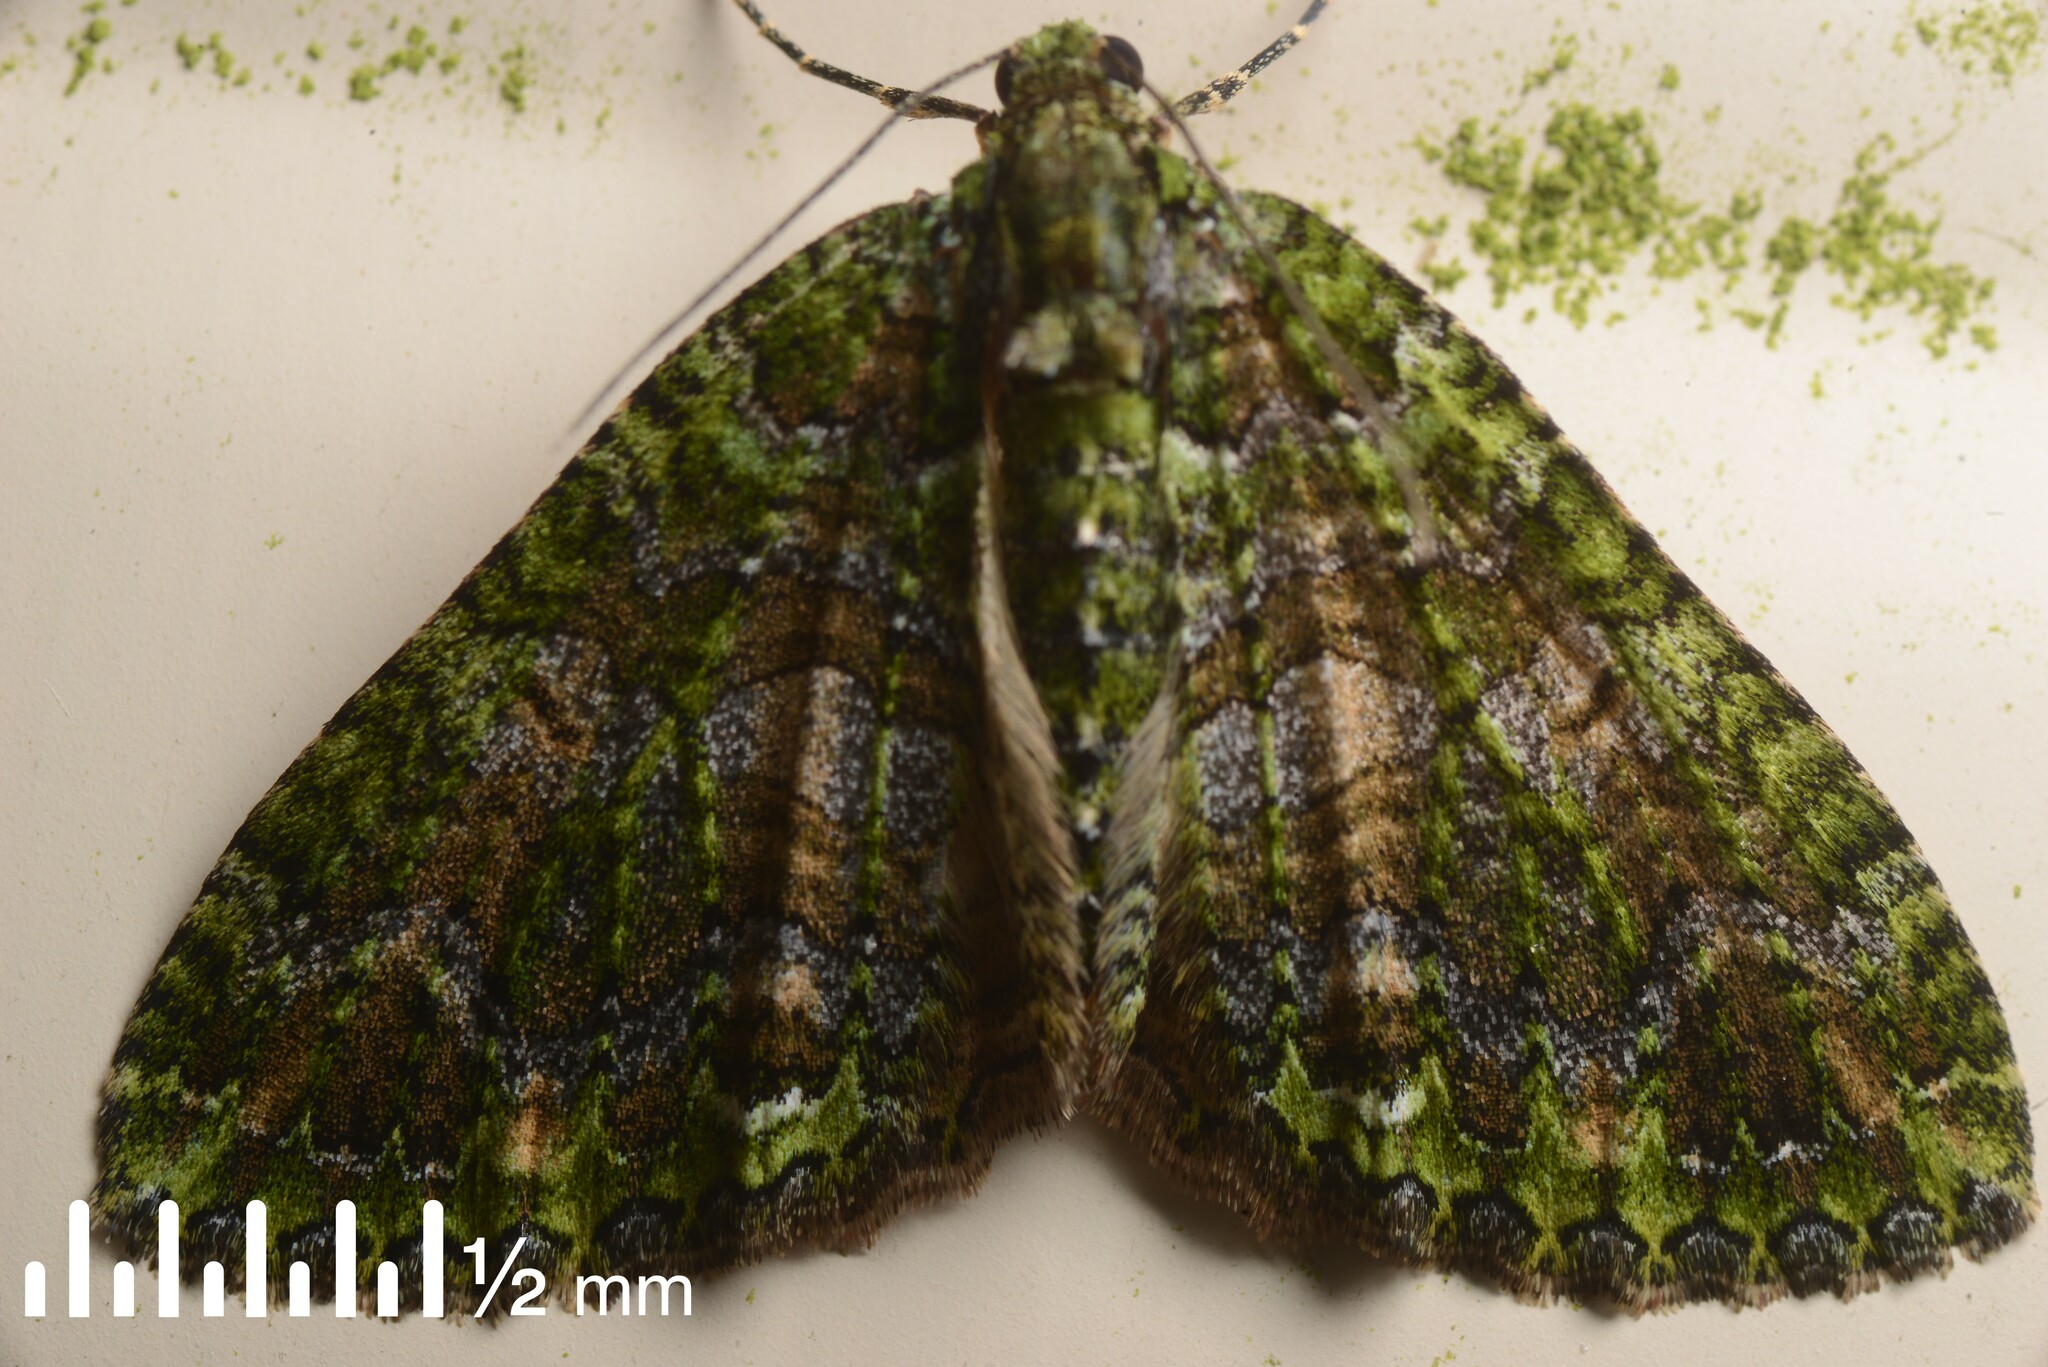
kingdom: Animalia
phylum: Arthropoda
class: Insecta
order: Lepidoptera
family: Geometridae
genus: Austrocidaria
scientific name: Austrocidaria similata
